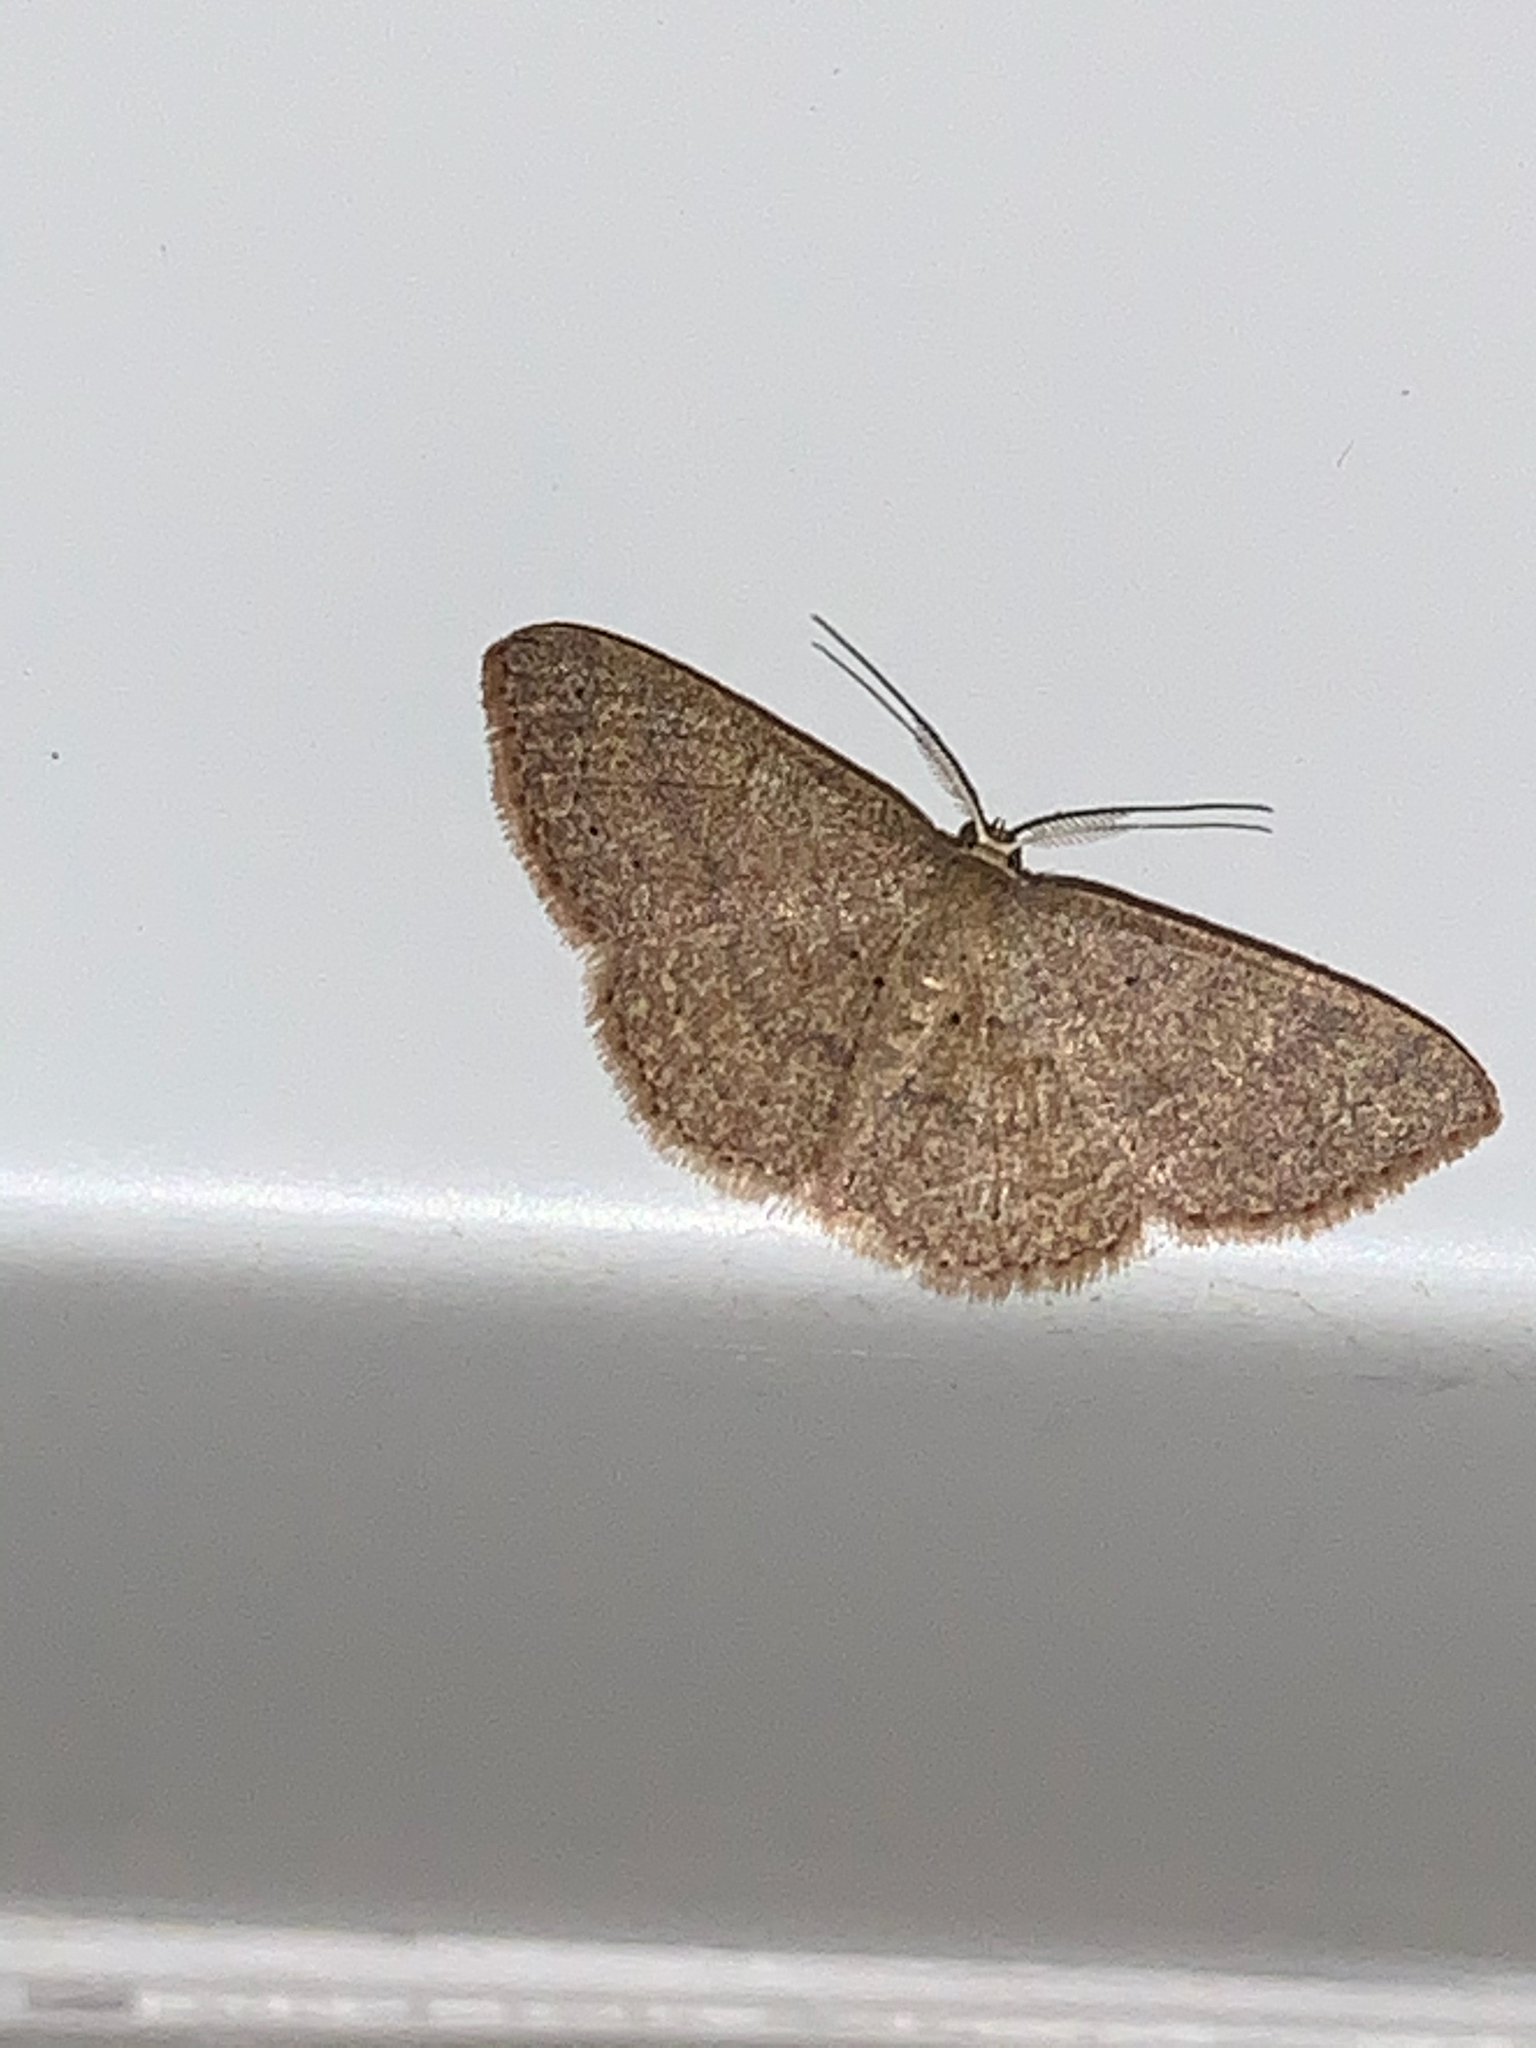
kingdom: Animalia
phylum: Arthropoda
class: Insecta
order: Lepidoptera
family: Geometridae
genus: Pleuroprucha
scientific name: Pleuroprucha insulsaria
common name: Common tan wave
